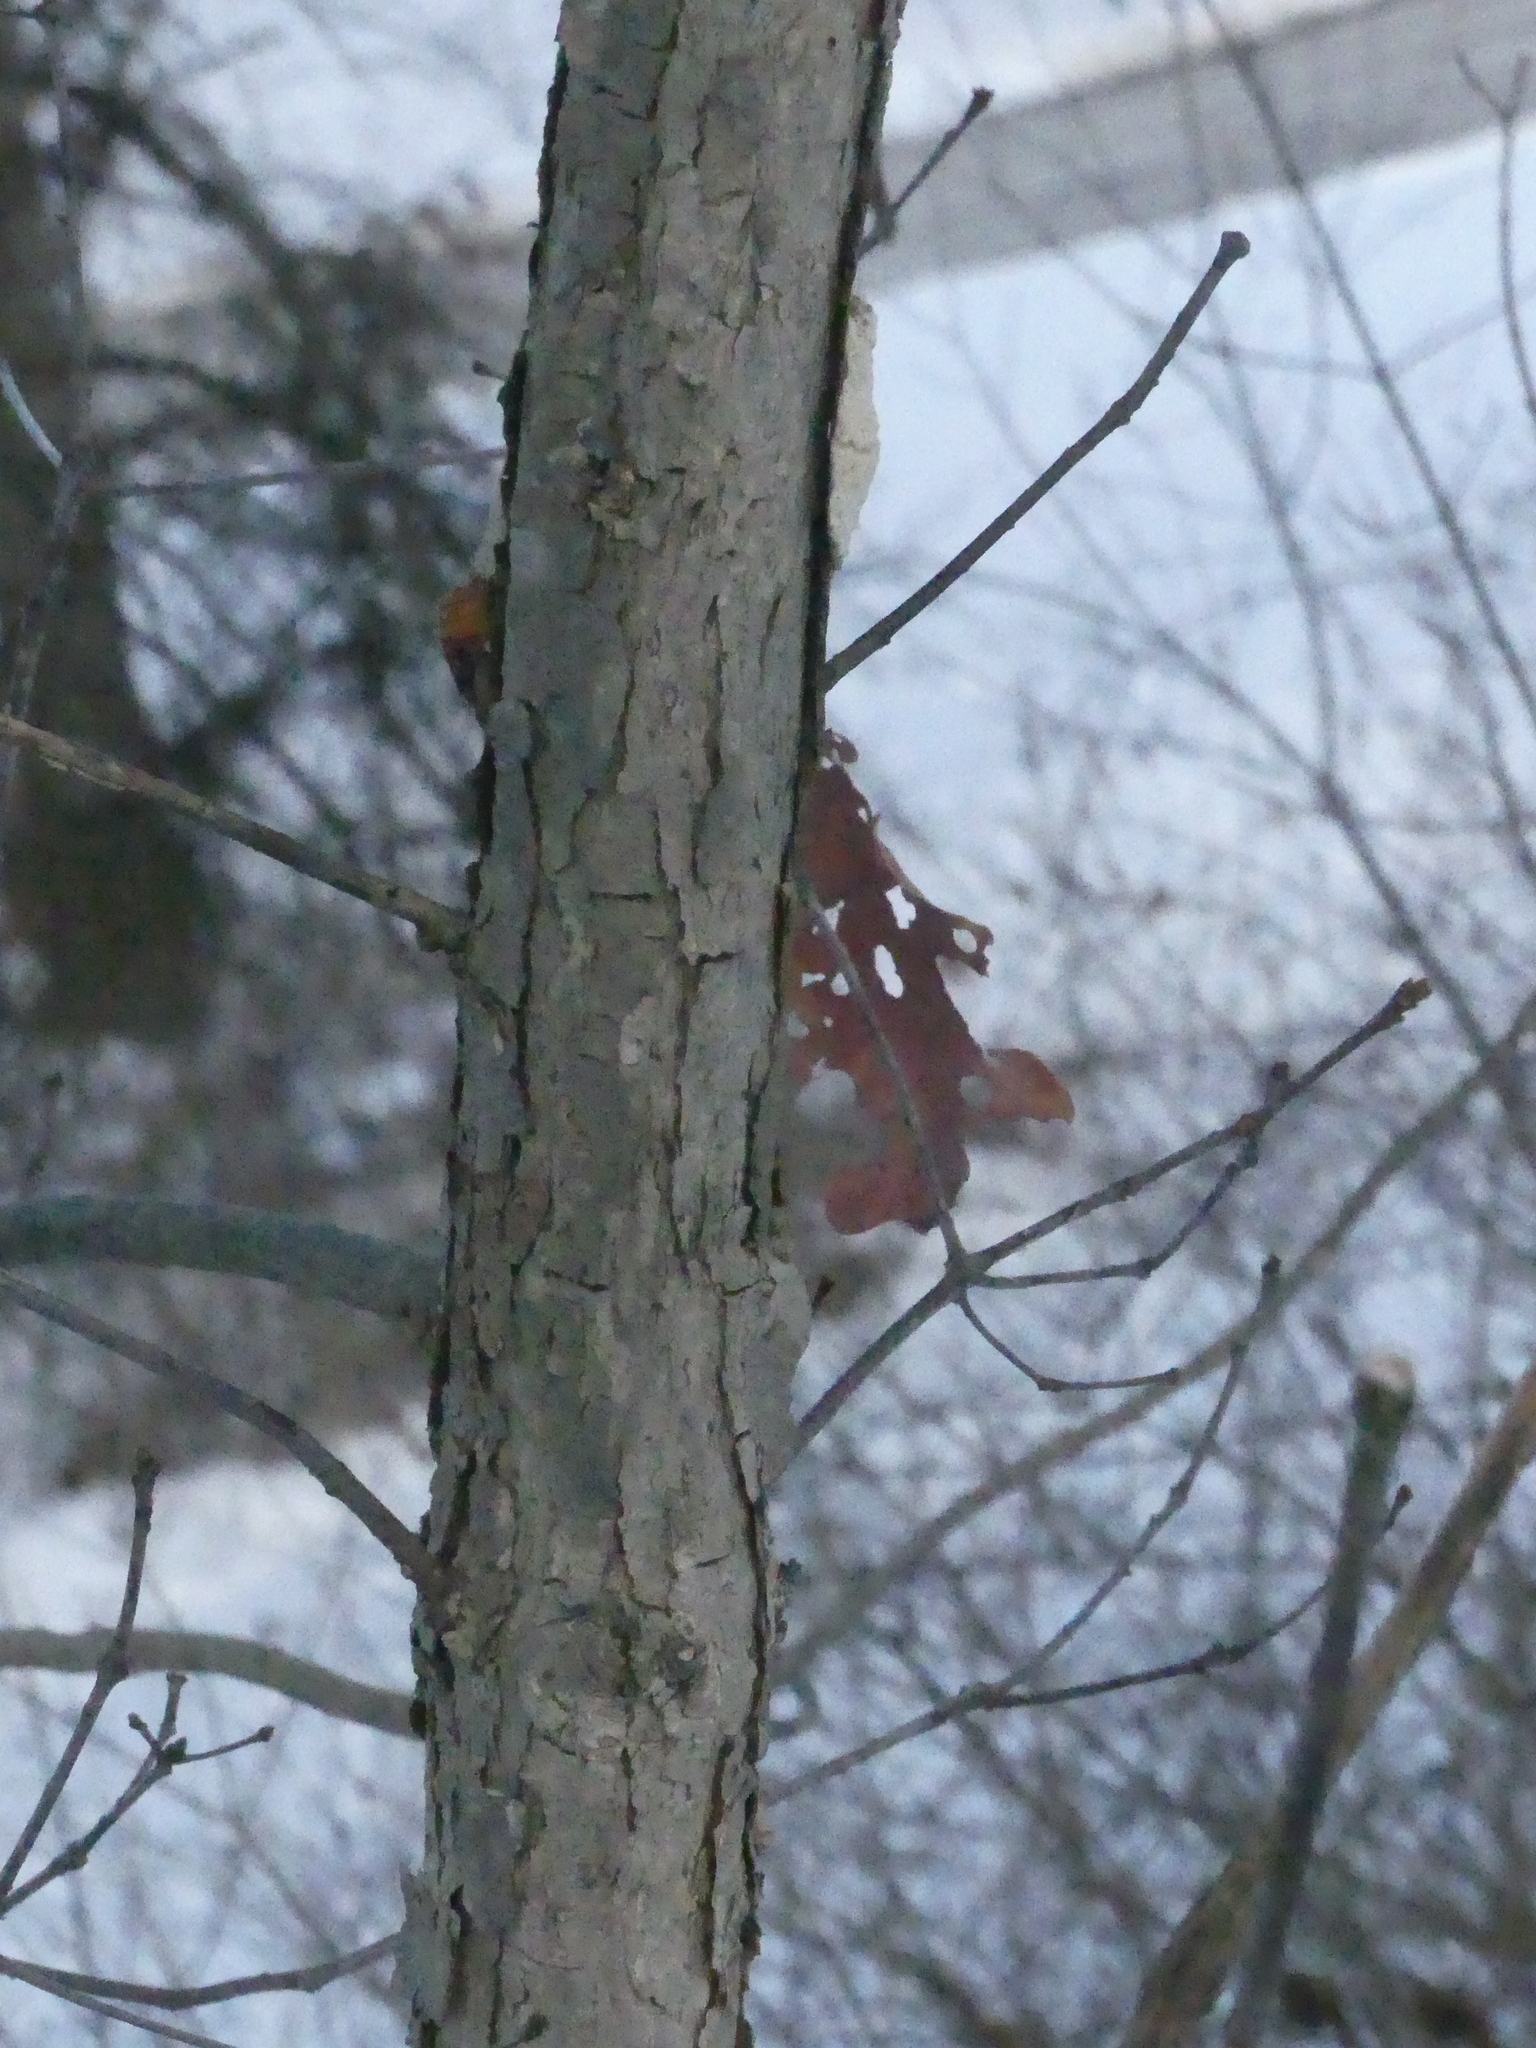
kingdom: Plantae
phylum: Tracheophyta
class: Magnoliopsida
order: Fagales
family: Fagaceae
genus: Quercus
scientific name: Quercus alba
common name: White oak
